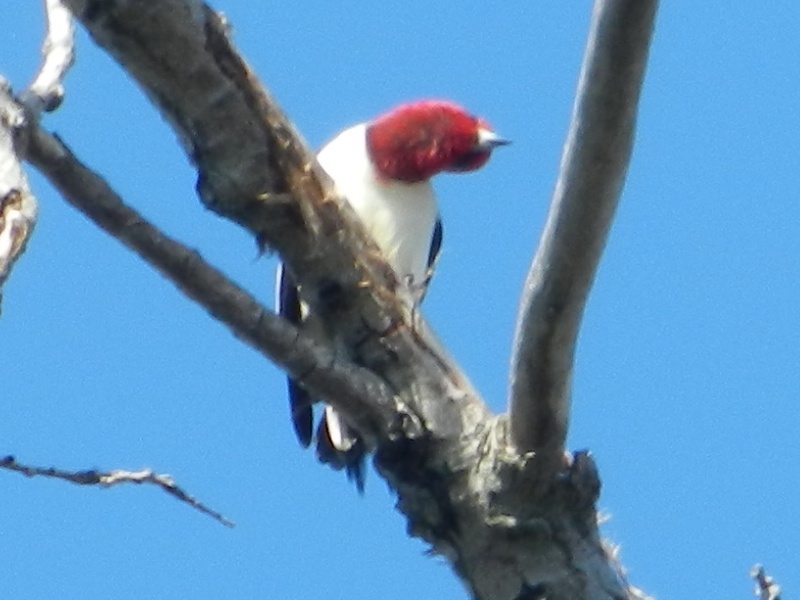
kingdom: Animalia
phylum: Chordata
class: Aves
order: Piciformes
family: Picidae
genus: Melanerpes
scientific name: Melanerpes erythrocephalus
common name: Red-headed woodpecker
